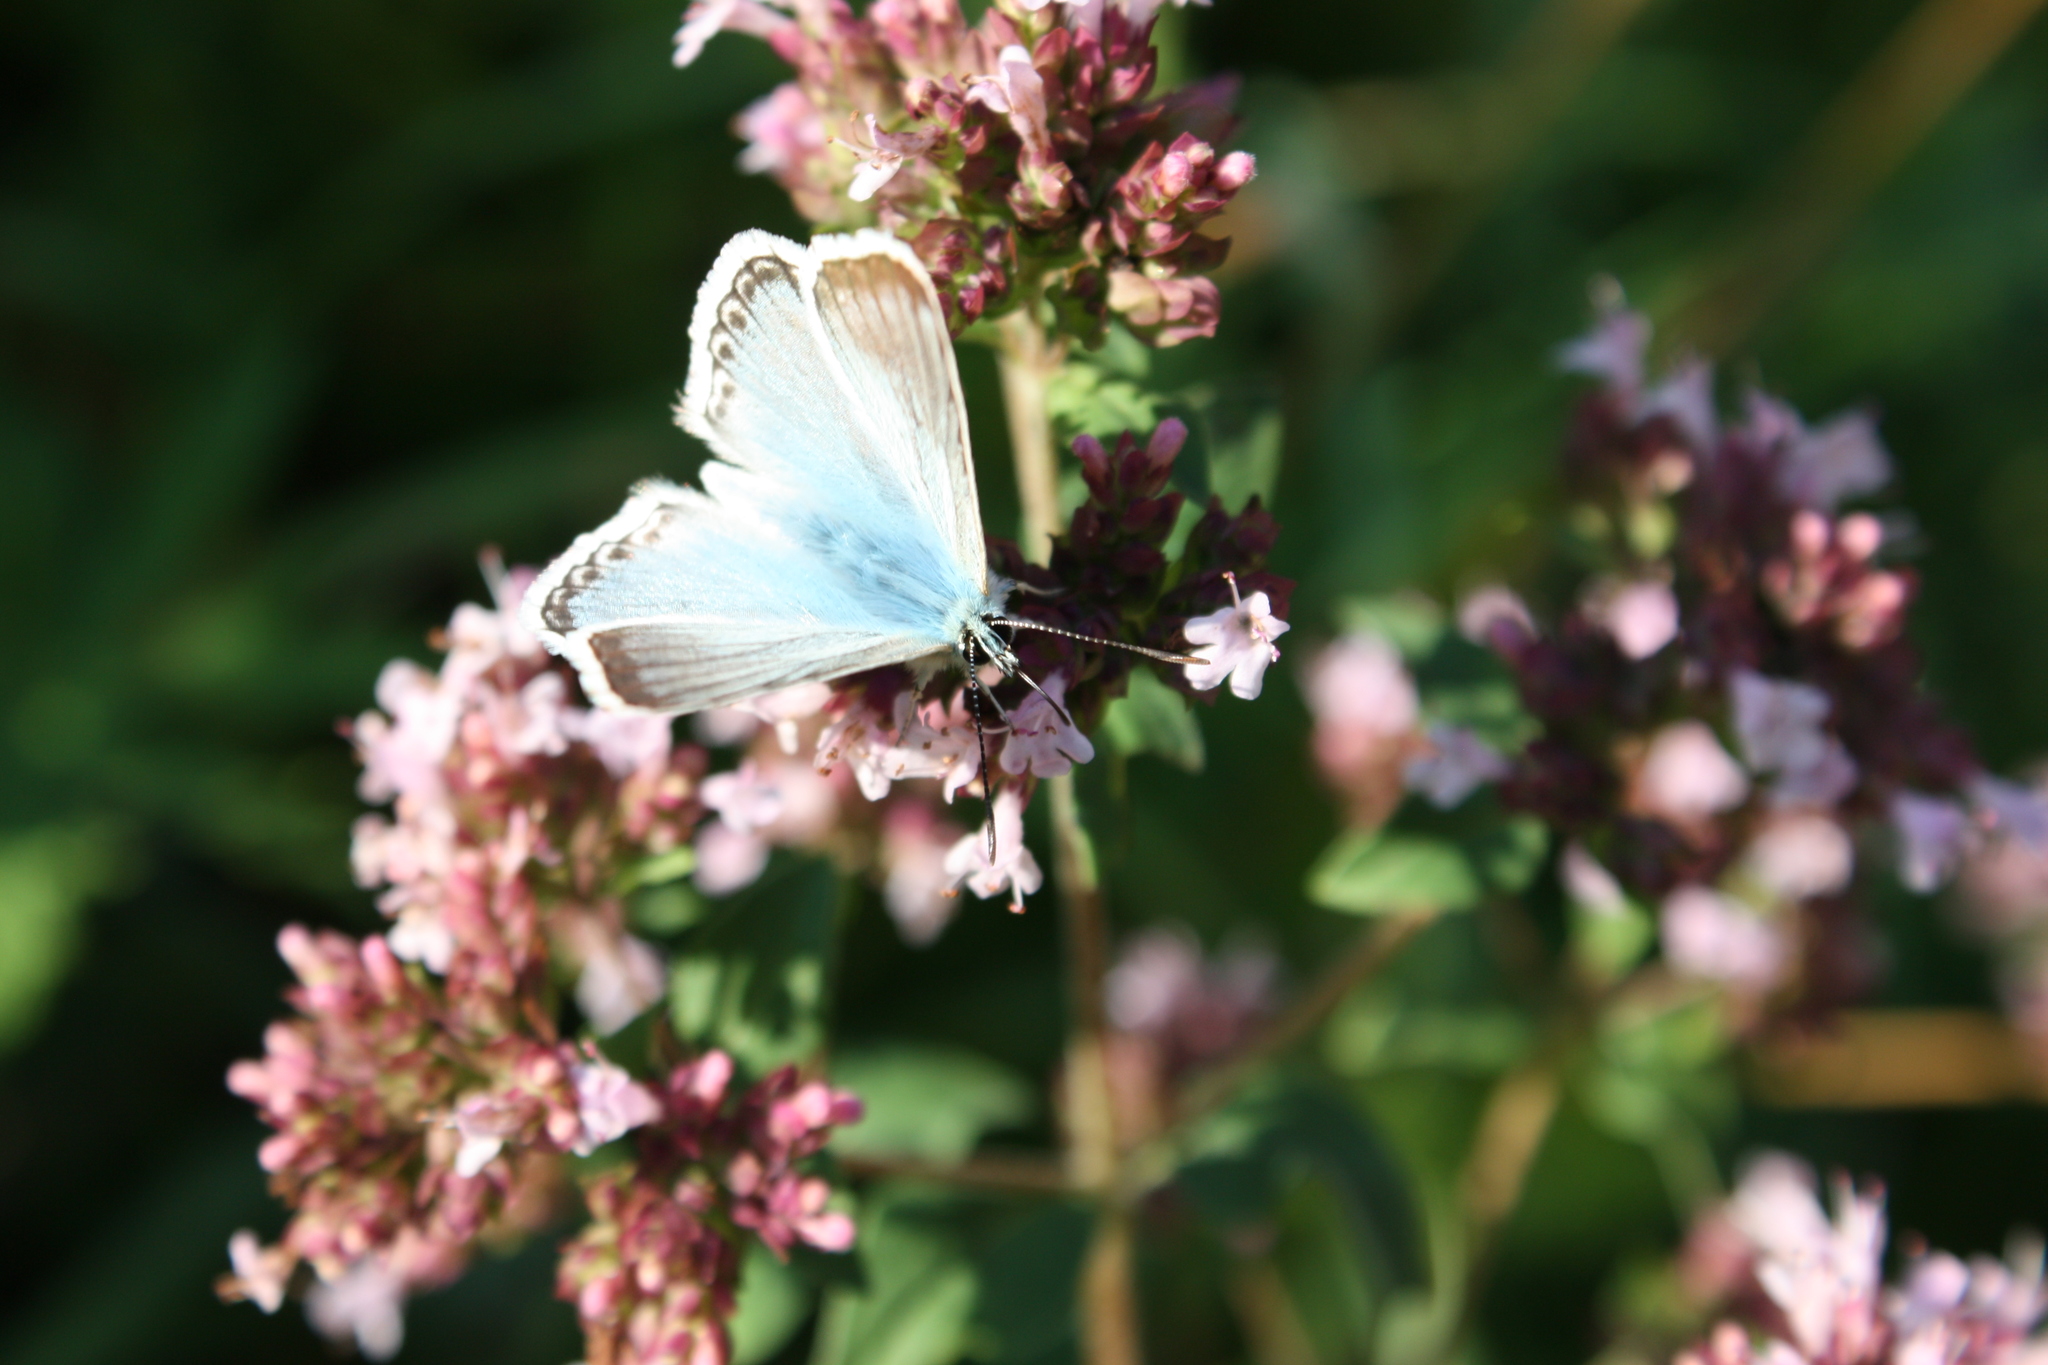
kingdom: Animalia
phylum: Arthropoda
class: Insecta
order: Lepidoptera
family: Lycaenidae
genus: Lysandra
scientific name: Lysandra coridon
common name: Chalkhill blue
